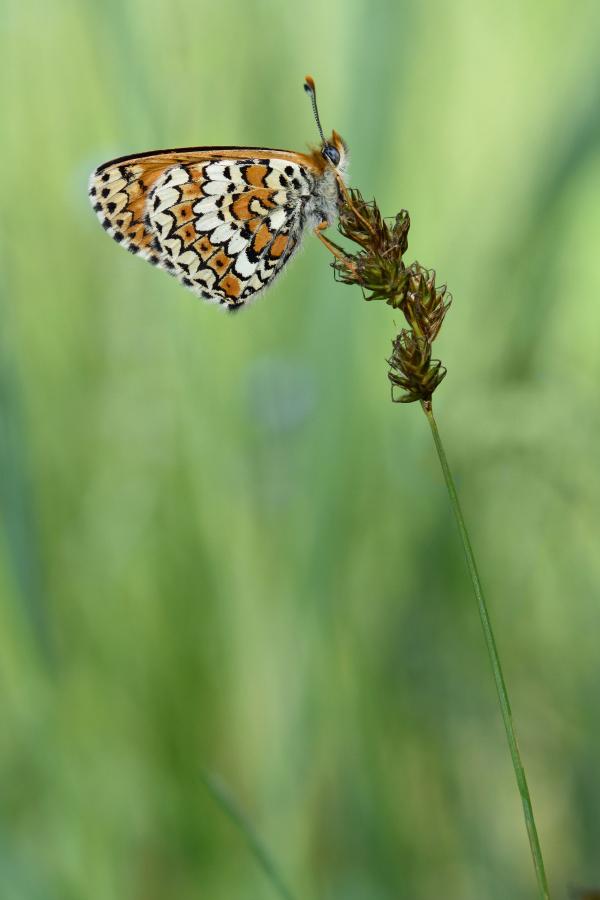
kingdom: Animalia
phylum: Arthropoda
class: Insecta
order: Lepidoptera
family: Nymphalidae
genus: Melitaea
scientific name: Melitaea cinxia
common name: Glanville fritillary
